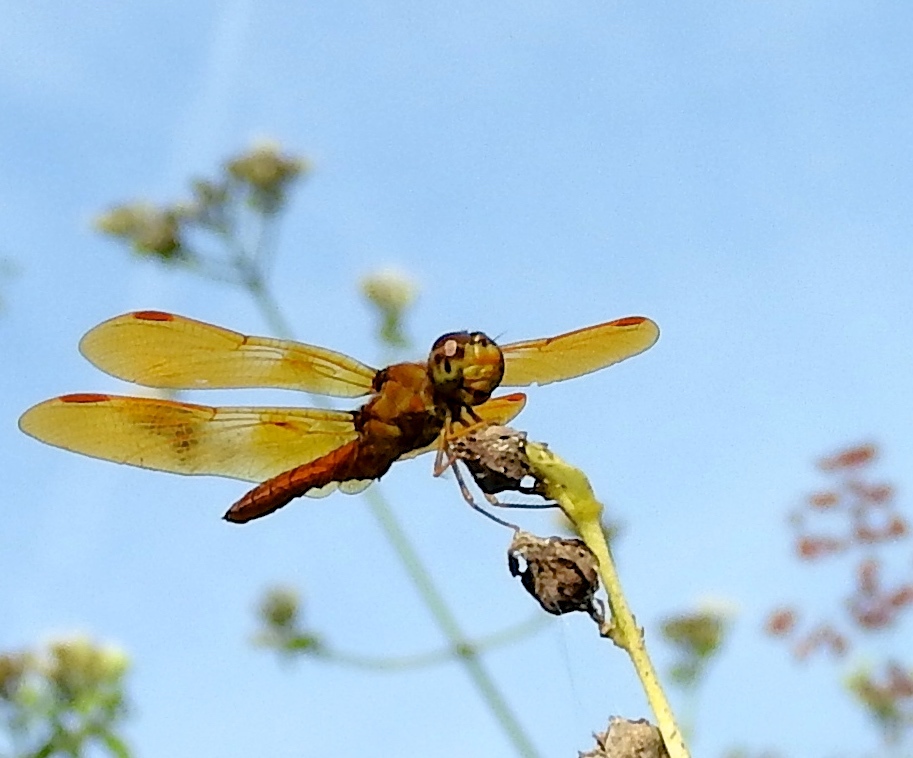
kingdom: Animalia
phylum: Arthropoda
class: Insecta
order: Odonata
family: Libellulidae
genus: Perithemis
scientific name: Perithemis
